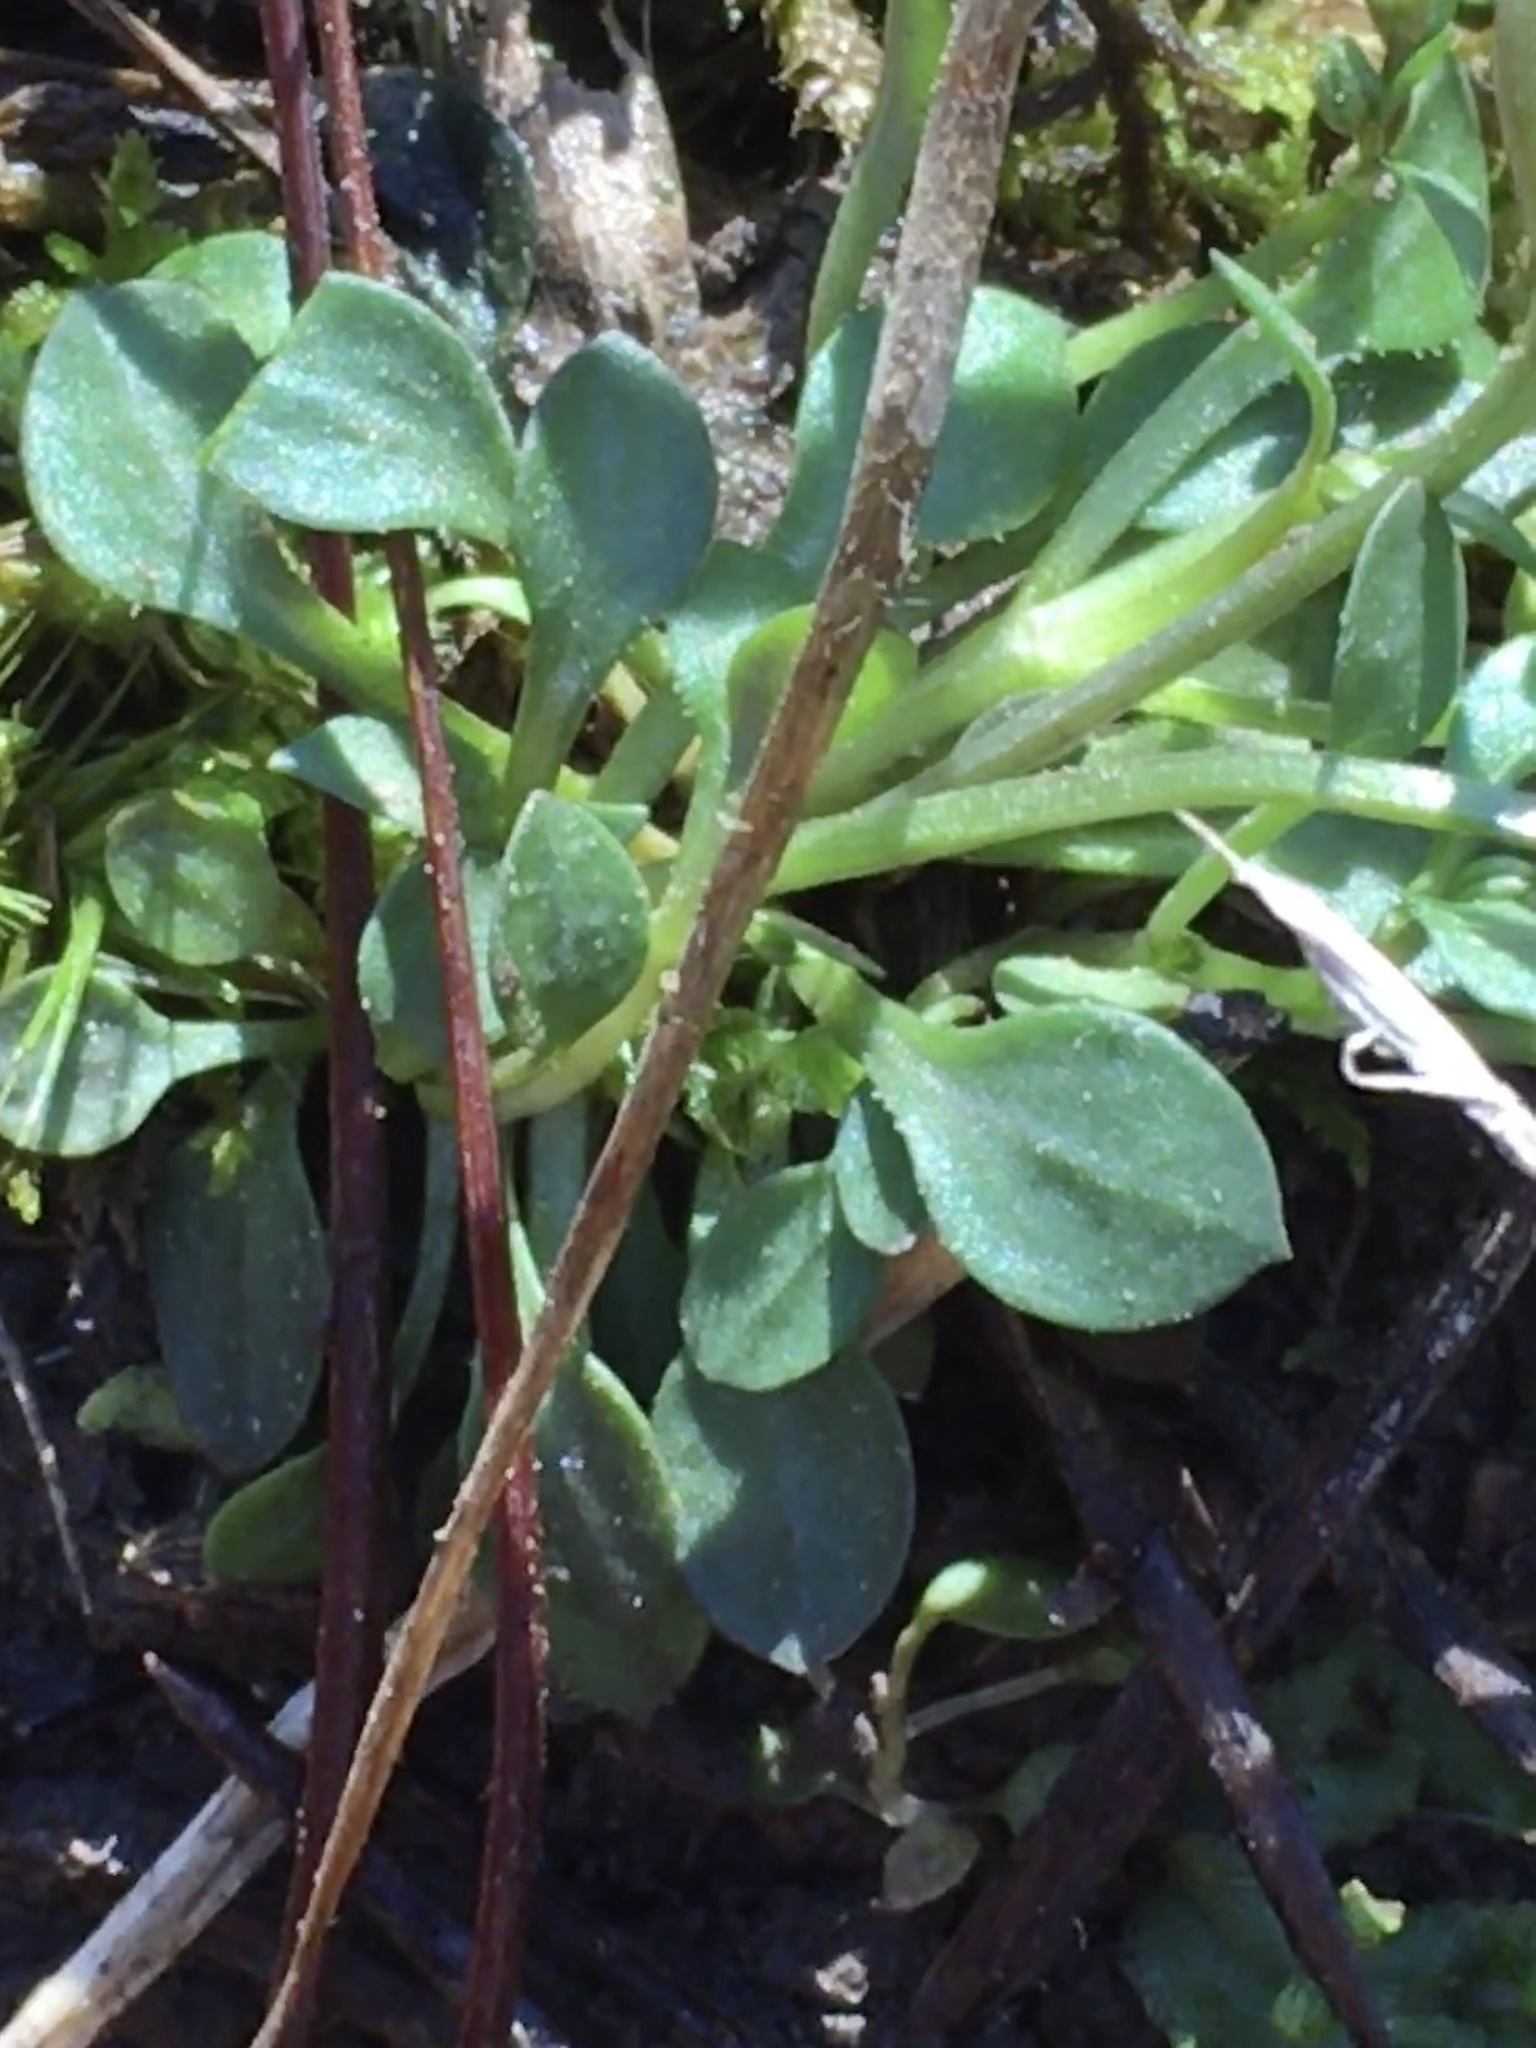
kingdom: Plantae
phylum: Tracheophyta
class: Magnoliopsida
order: Gentianales
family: Rubiaceae
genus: Houstonia
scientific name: Houstonia caerulea
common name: Bluets
